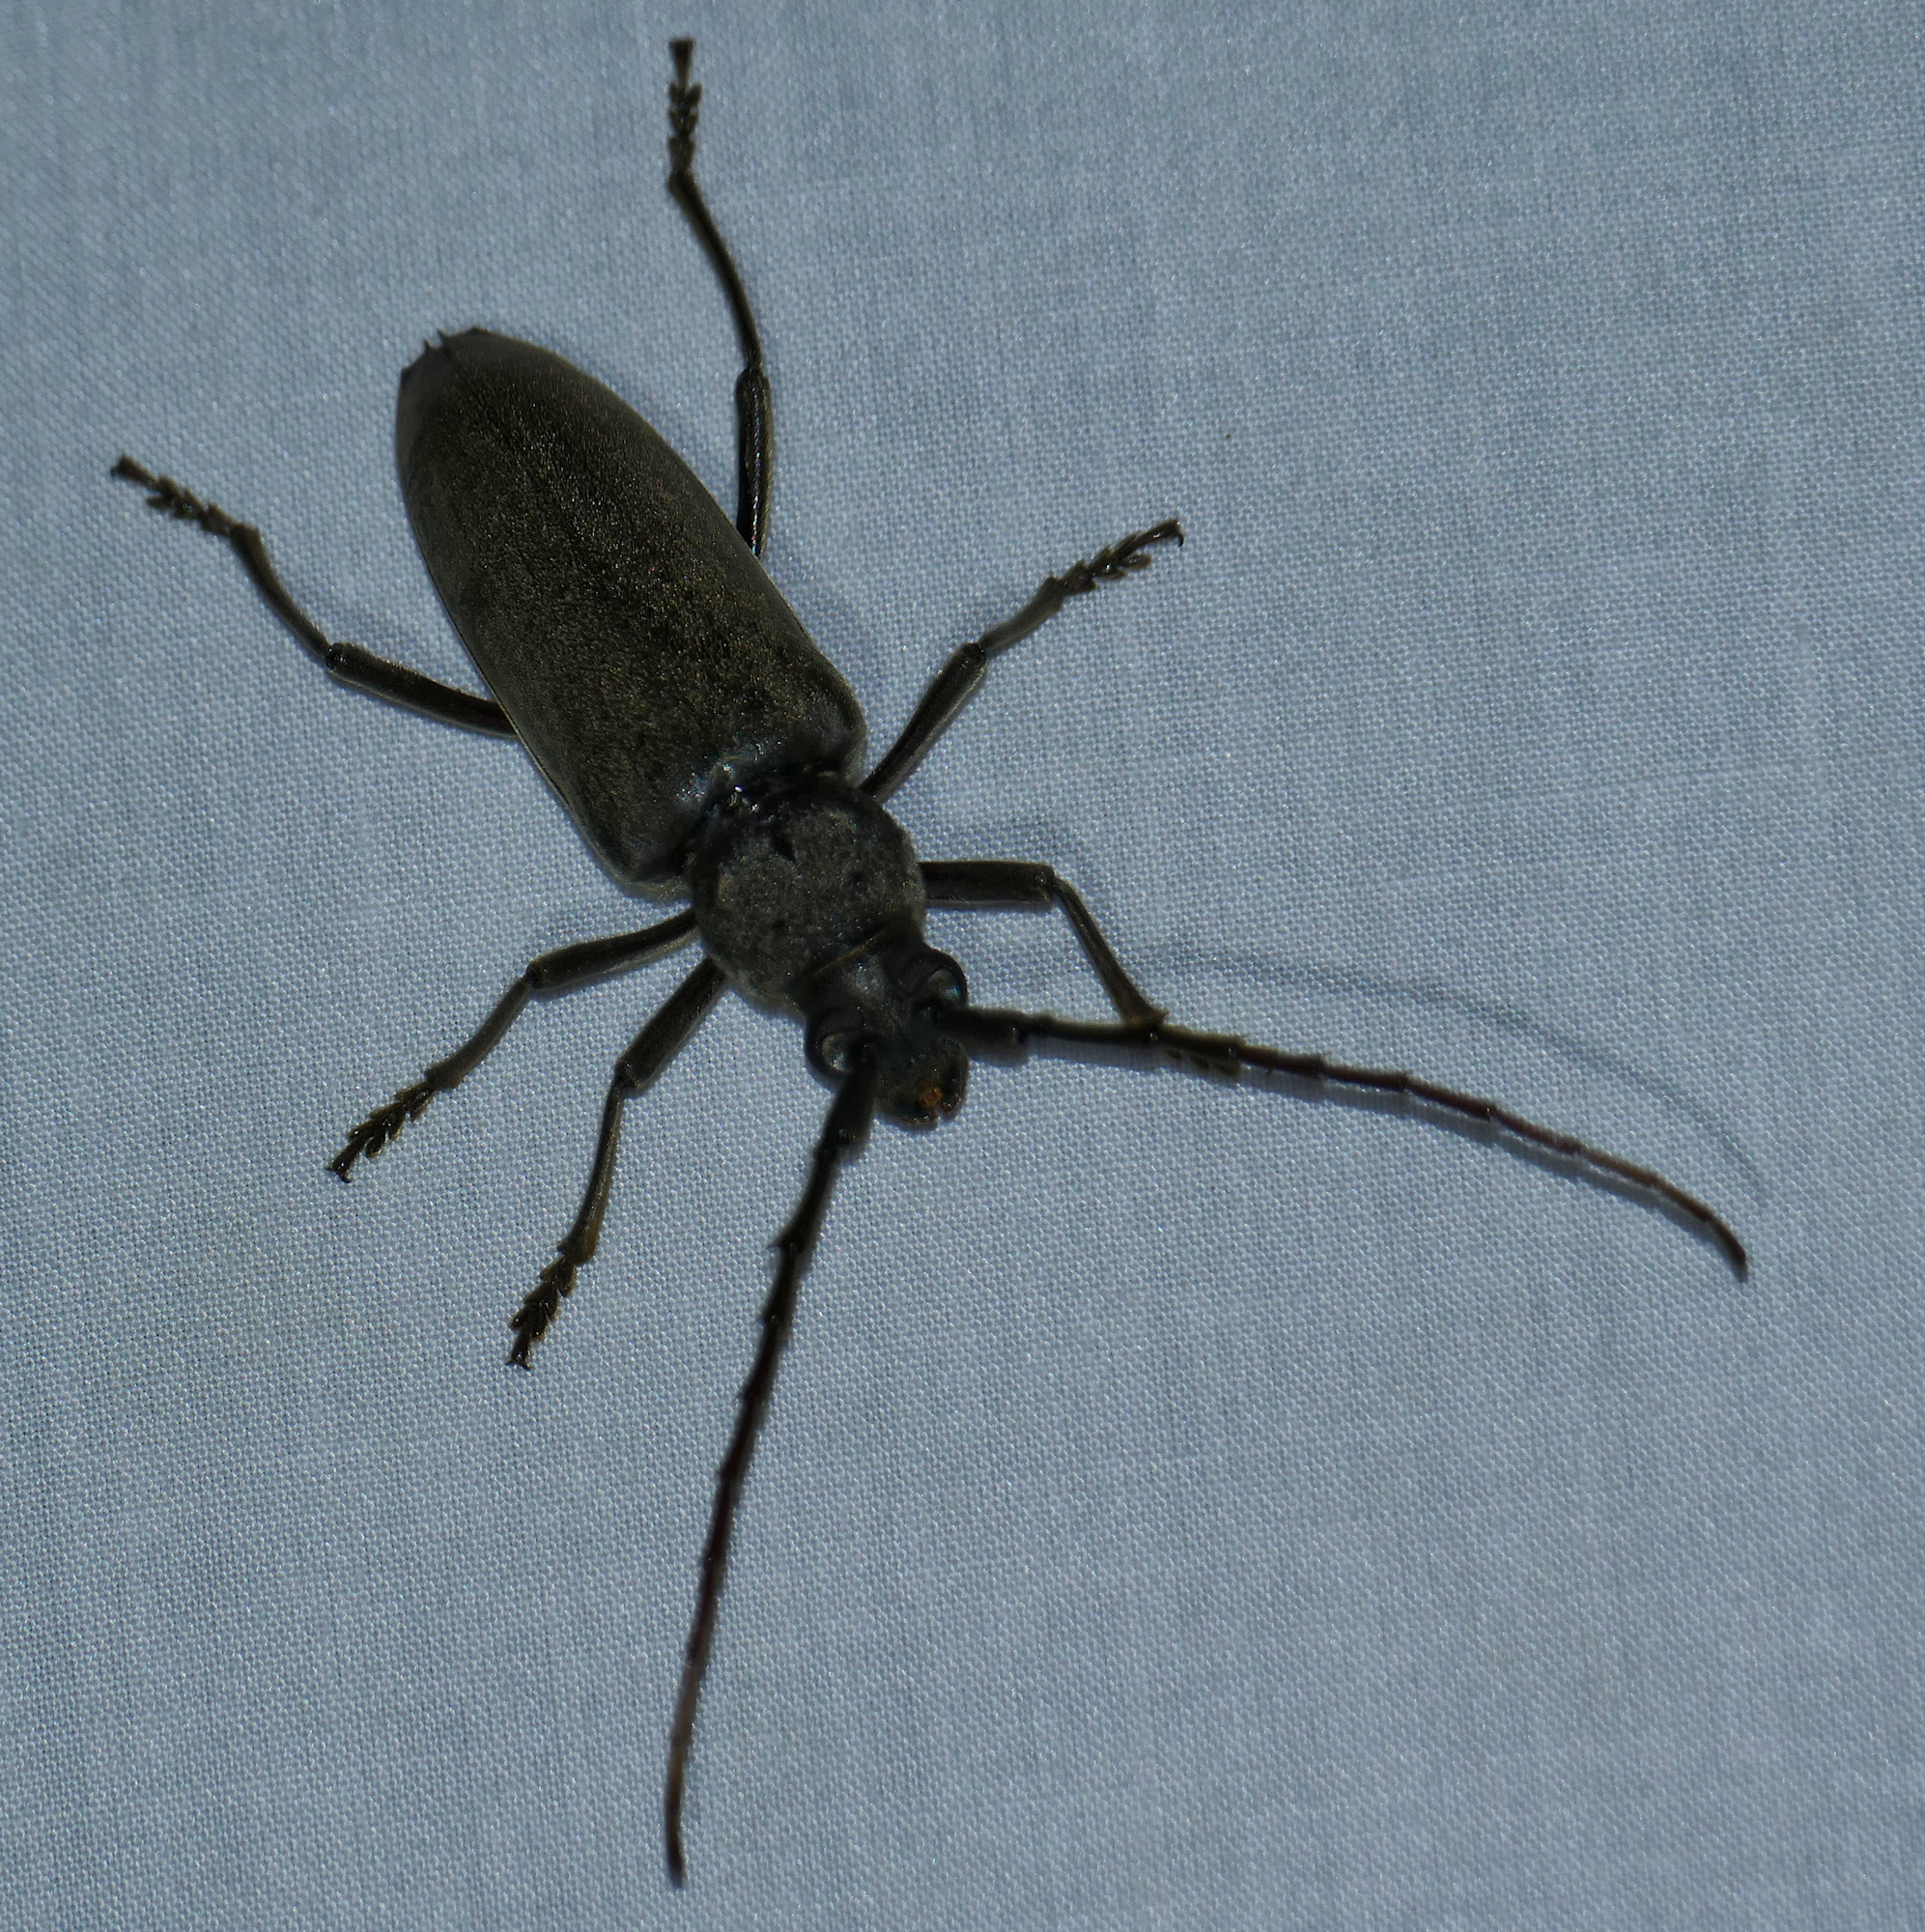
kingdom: Animalia
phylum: Arthropoda
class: Insecta
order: Coleoptera
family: Cerambycidae
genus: Enaphalodes
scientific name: Enaphalodes hispicornis
